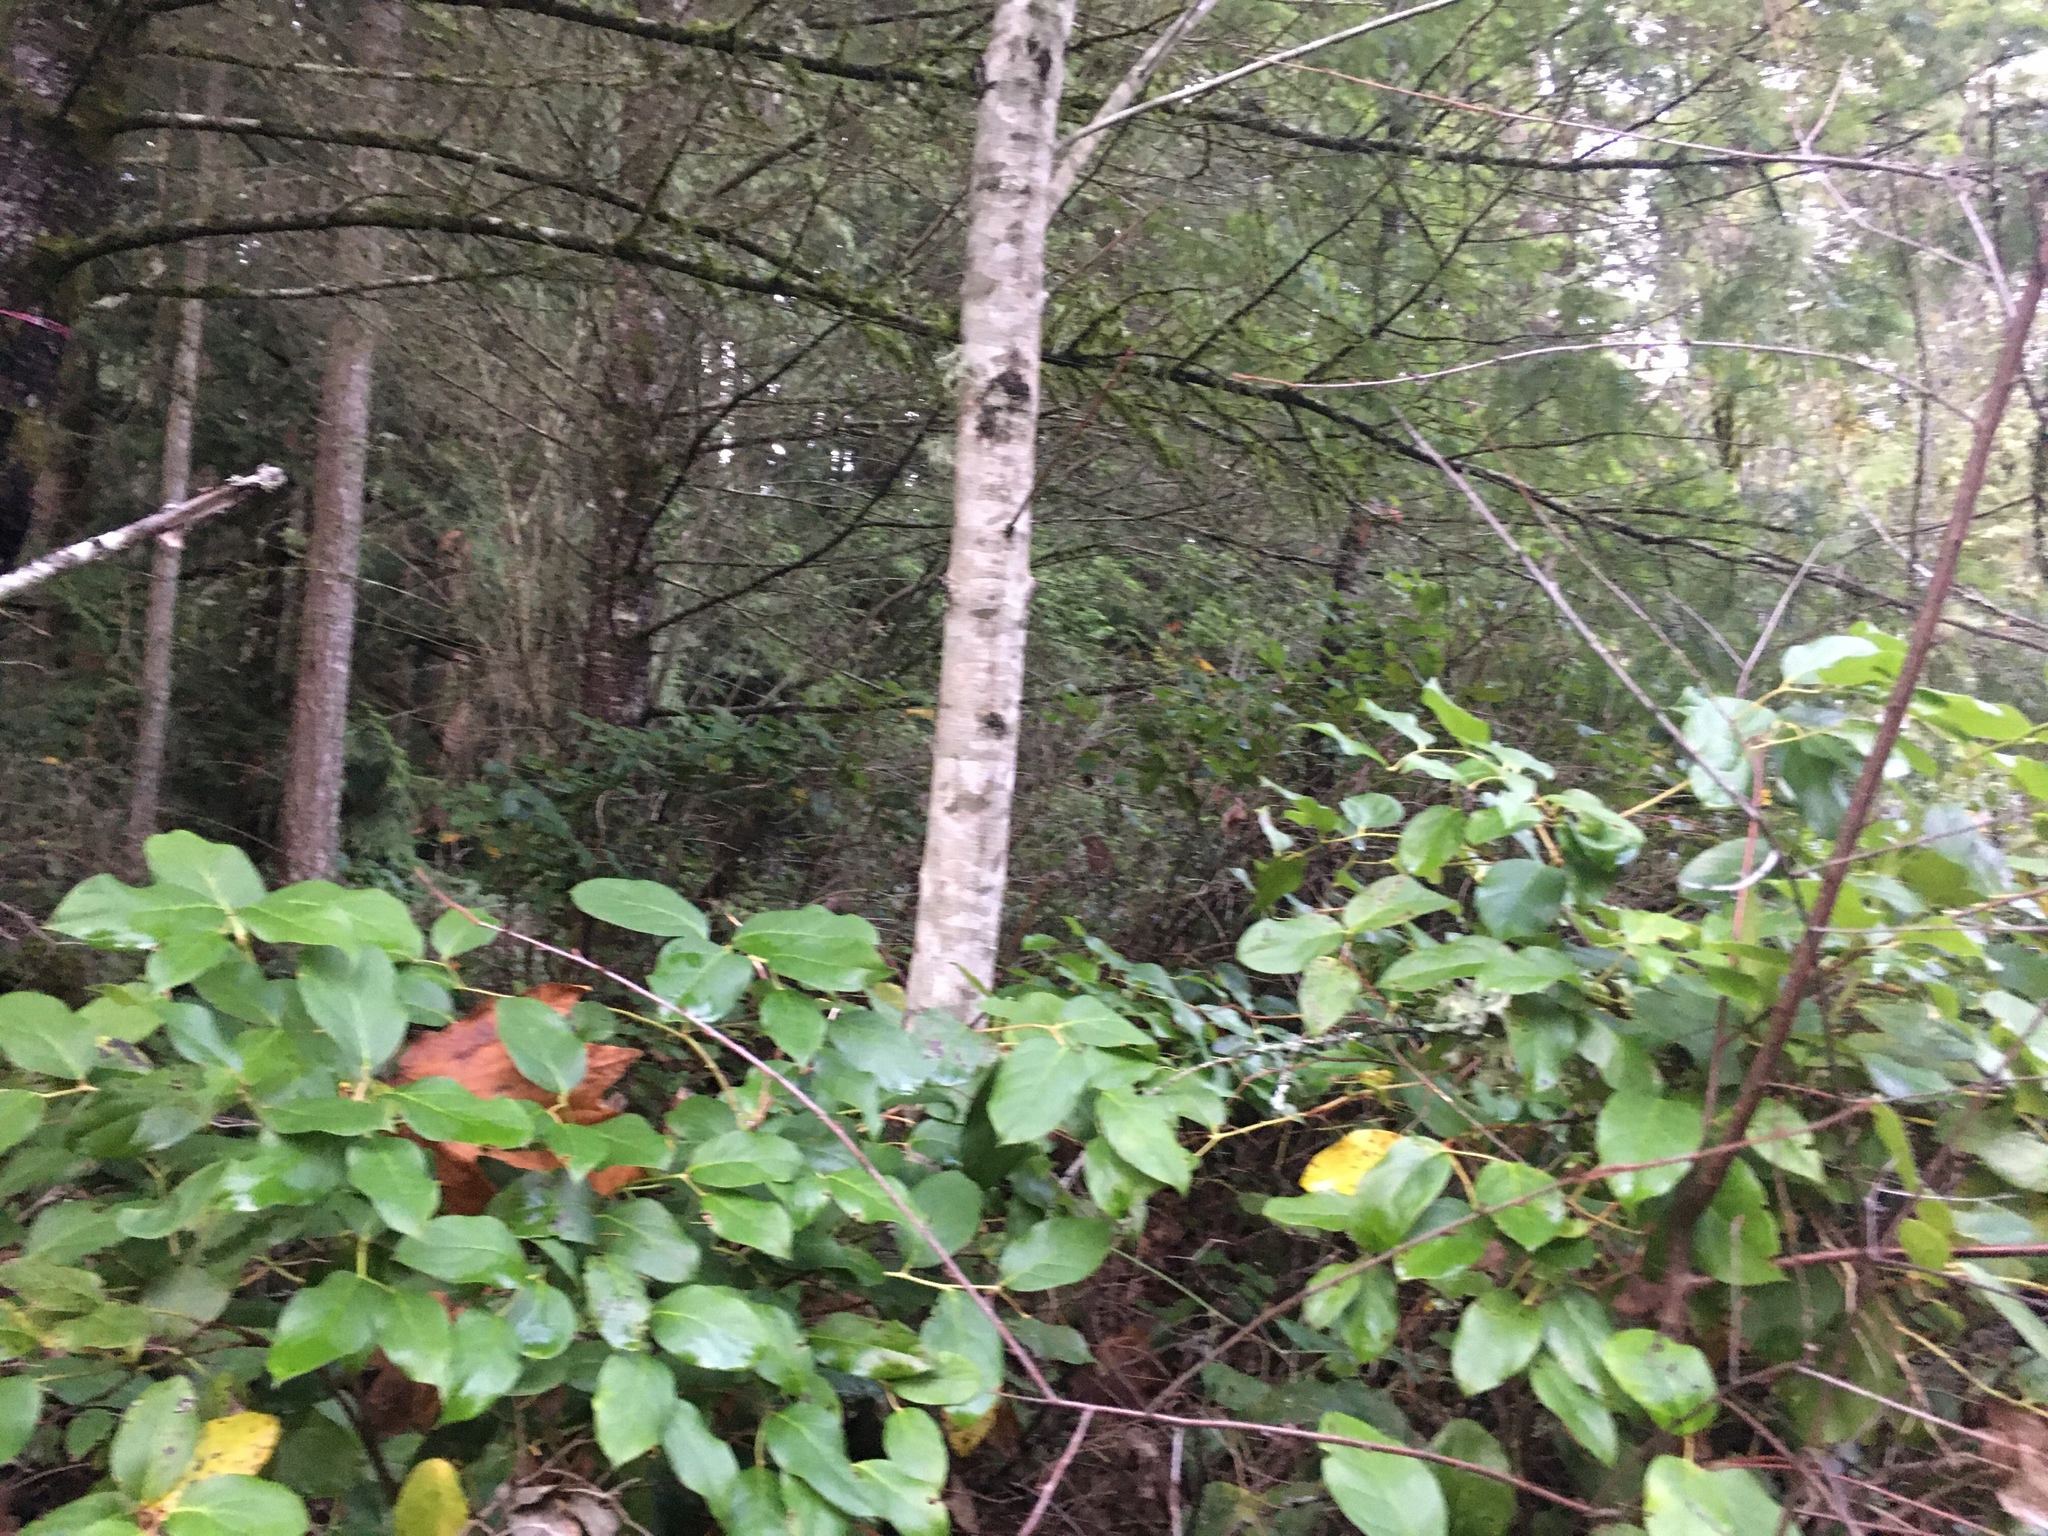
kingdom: Plantae
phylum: Tracheophyta
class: Magnoliopsida
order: Ericales
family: Ericaceae
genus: Gaultheria
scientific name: Gaultheria shallon
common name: Shallon
